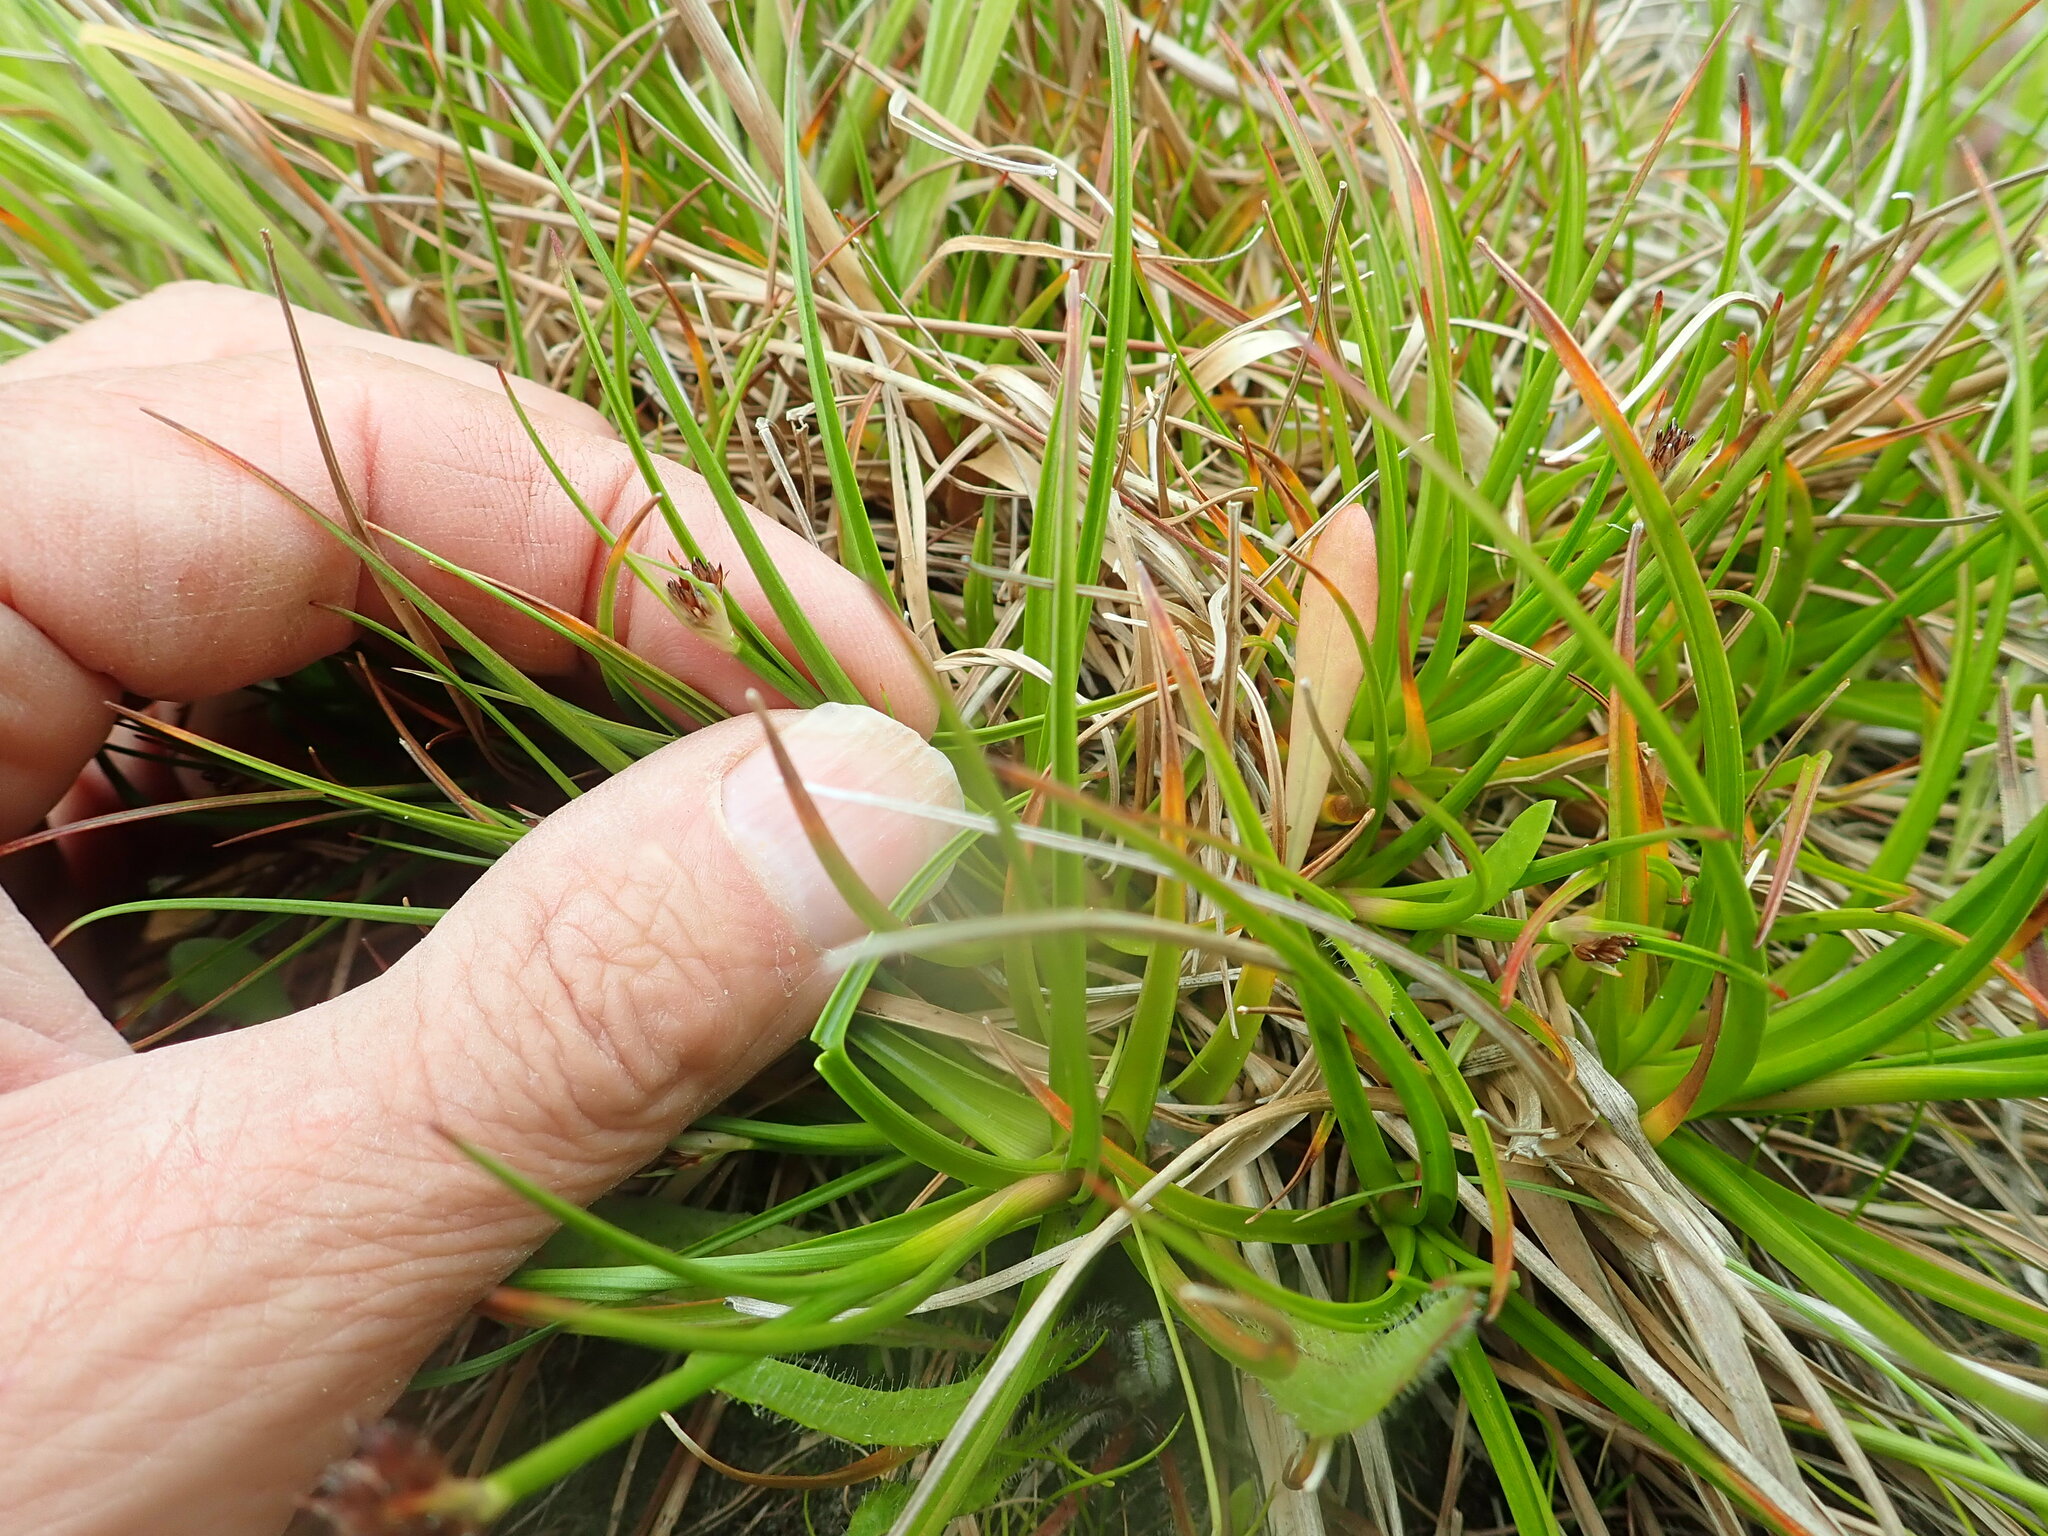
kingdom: Plantae
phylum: Tracheophyta
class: Liliopsida
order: Poales
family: Juncaceae
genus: Juncus
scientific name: Juncus caespiticius
